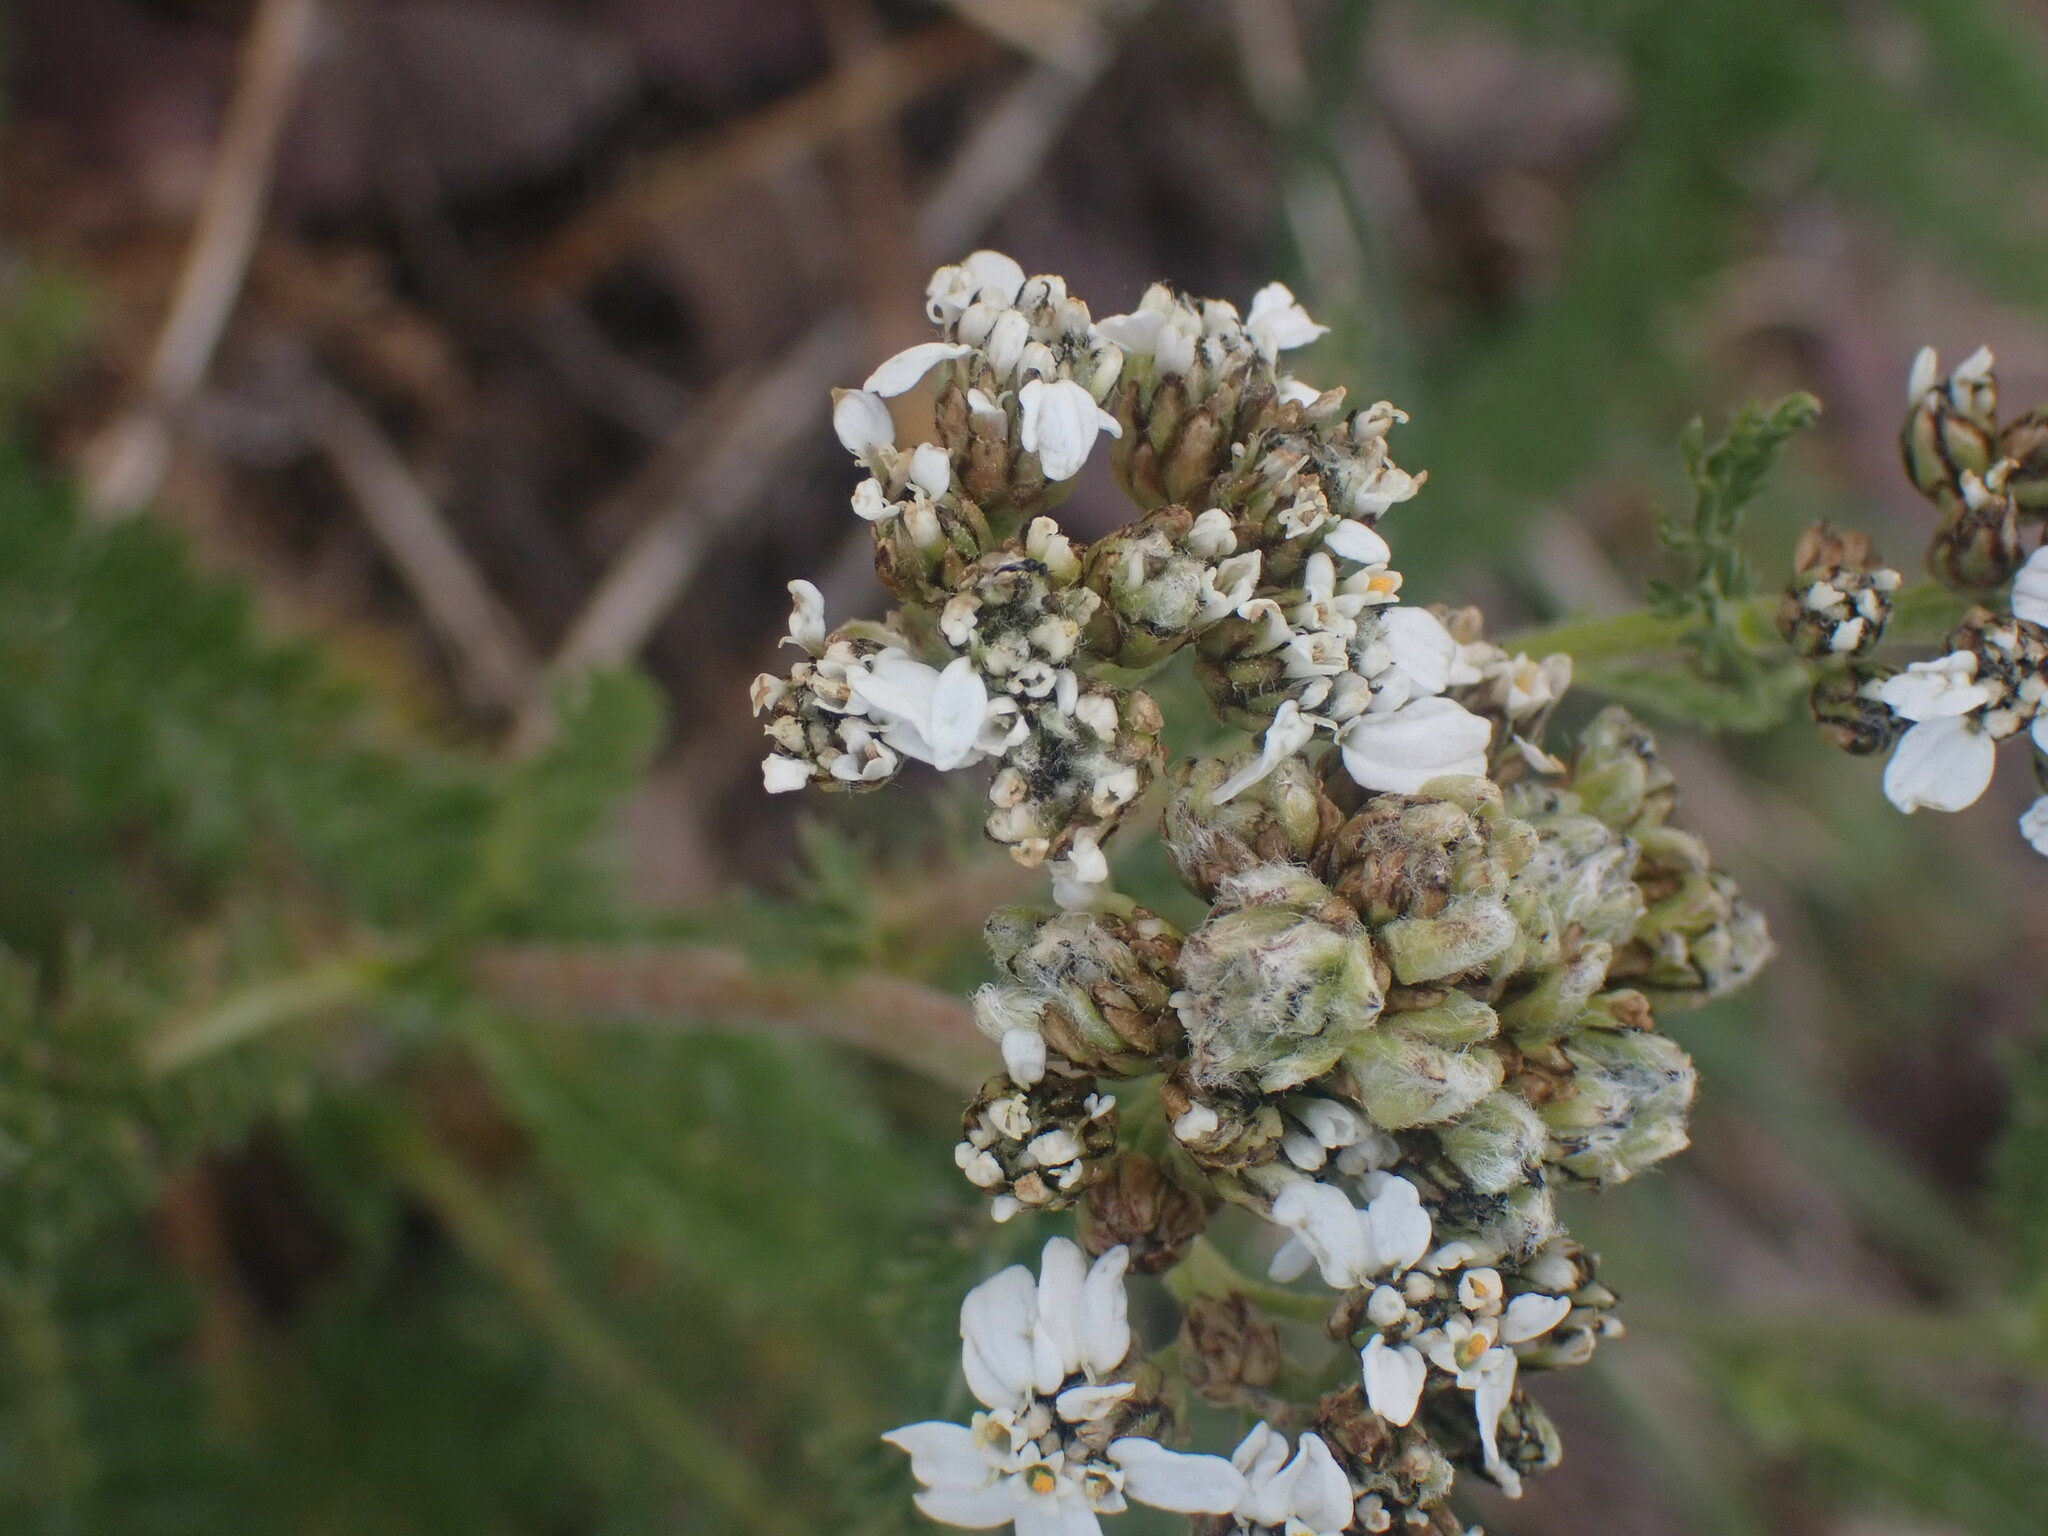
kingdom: Plantae
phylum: Tracheophyta
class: Magnoliopsida
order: Asterales
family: Asteraceae
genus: Achillea
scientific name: Achillea millefolium
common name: Yarrow
